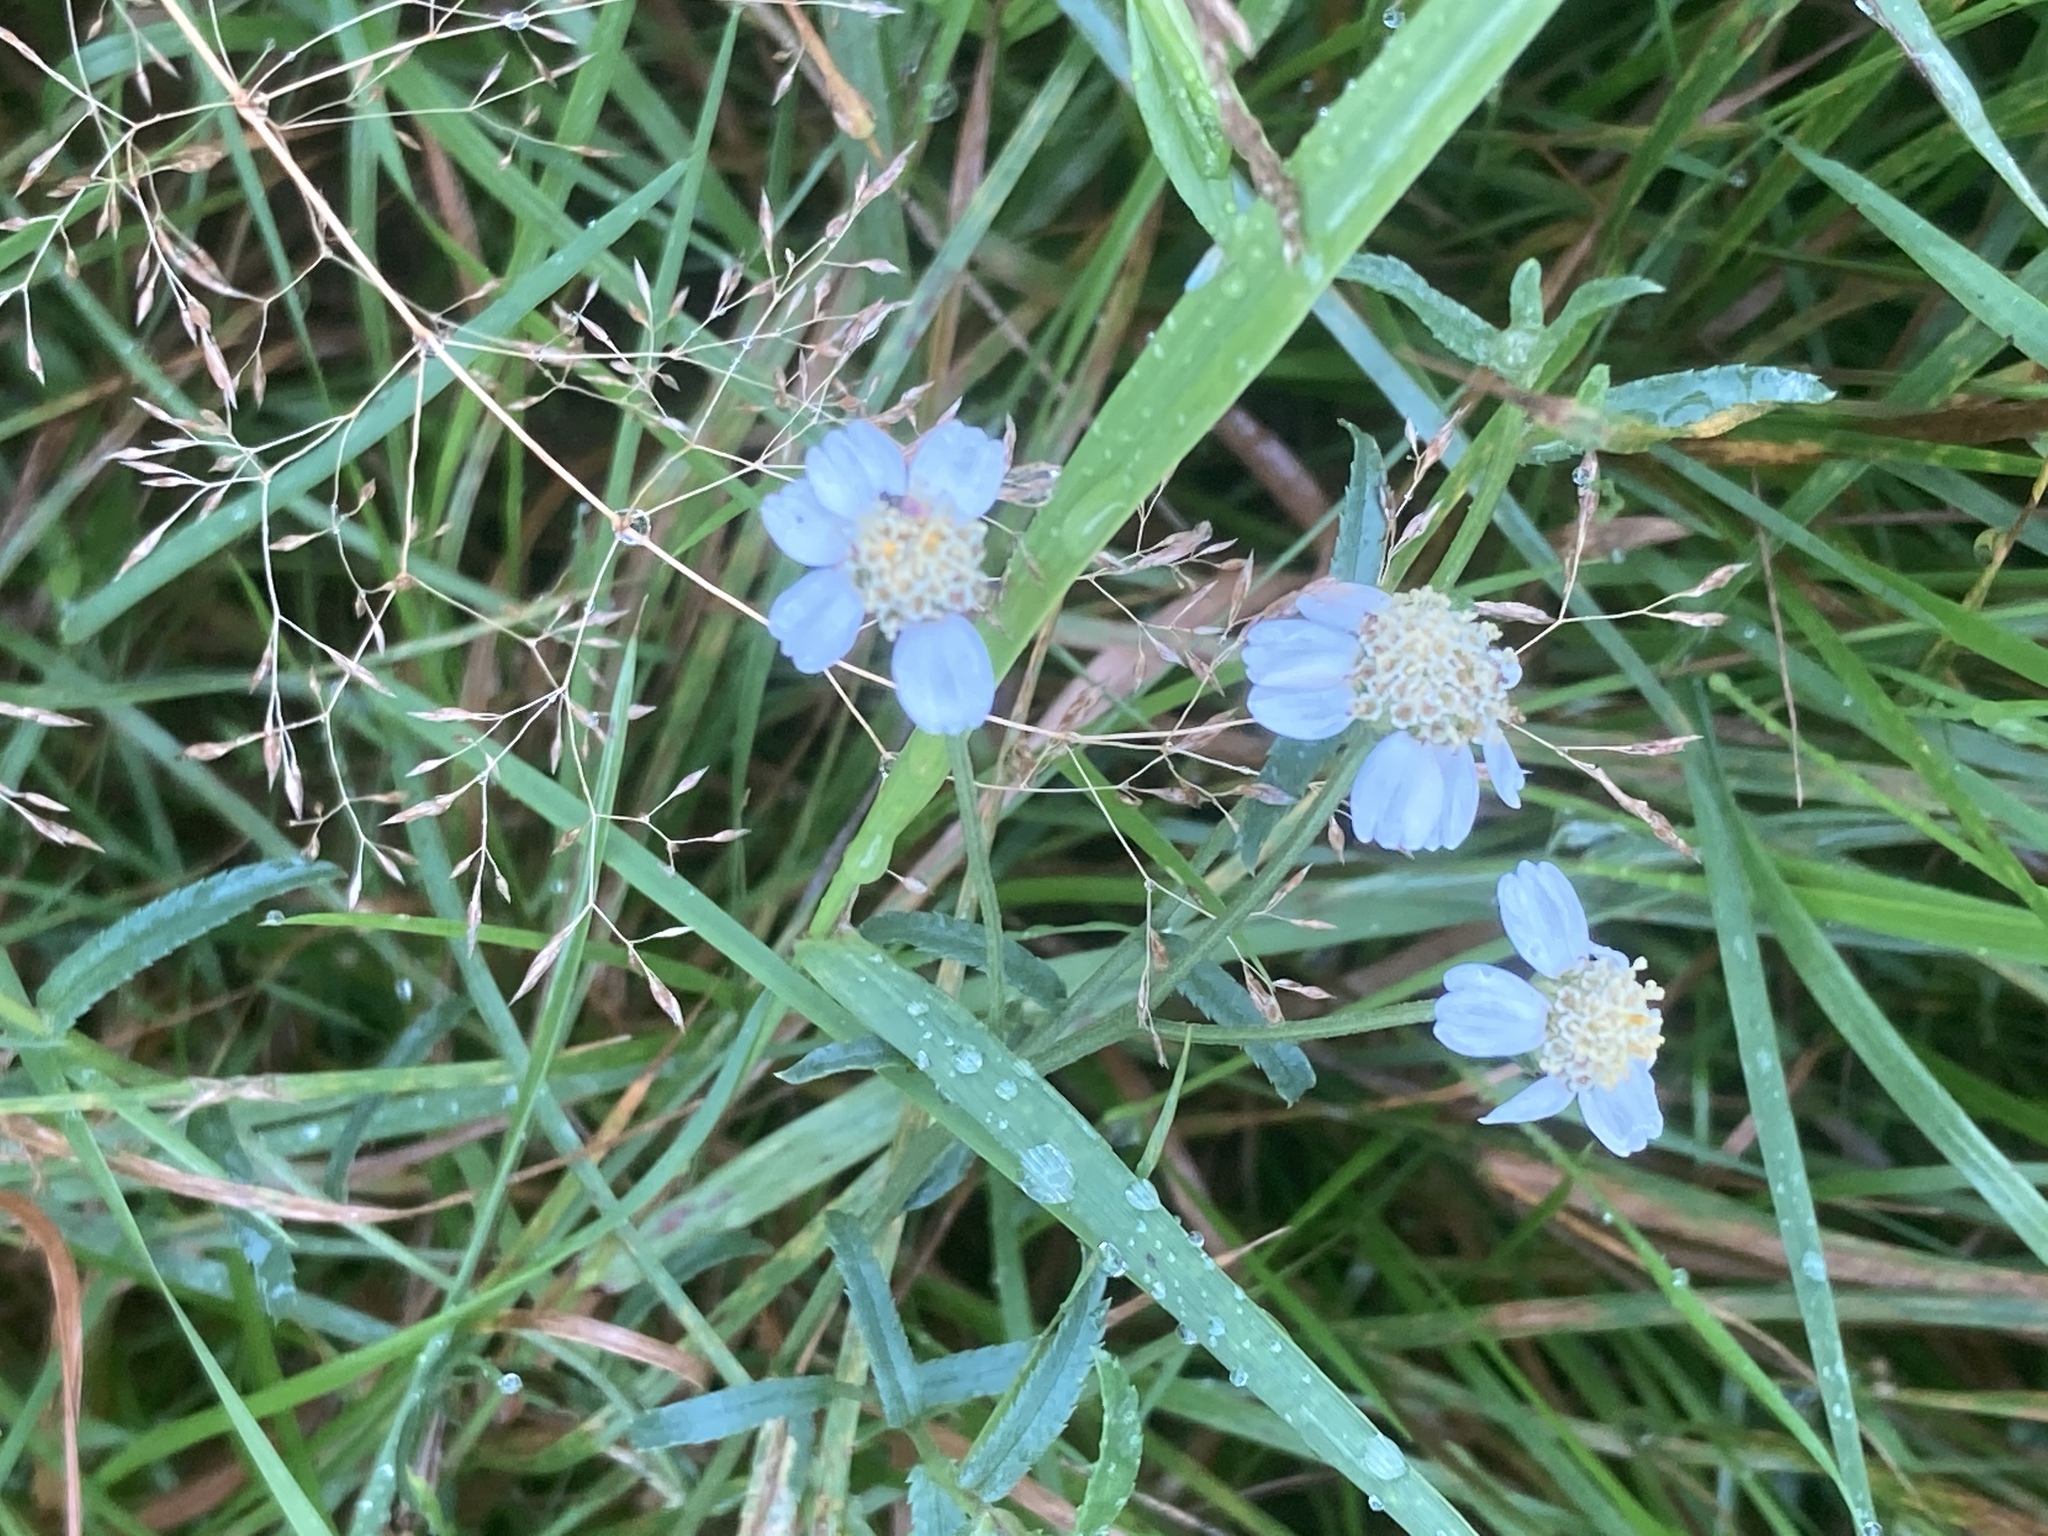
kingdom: Plantae
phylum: Tracheophyta
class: Magnoliopsida
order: Asterales
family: Asteraceae
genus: Achillea
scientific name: Achillea ptarmica
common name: Sneezeweed
